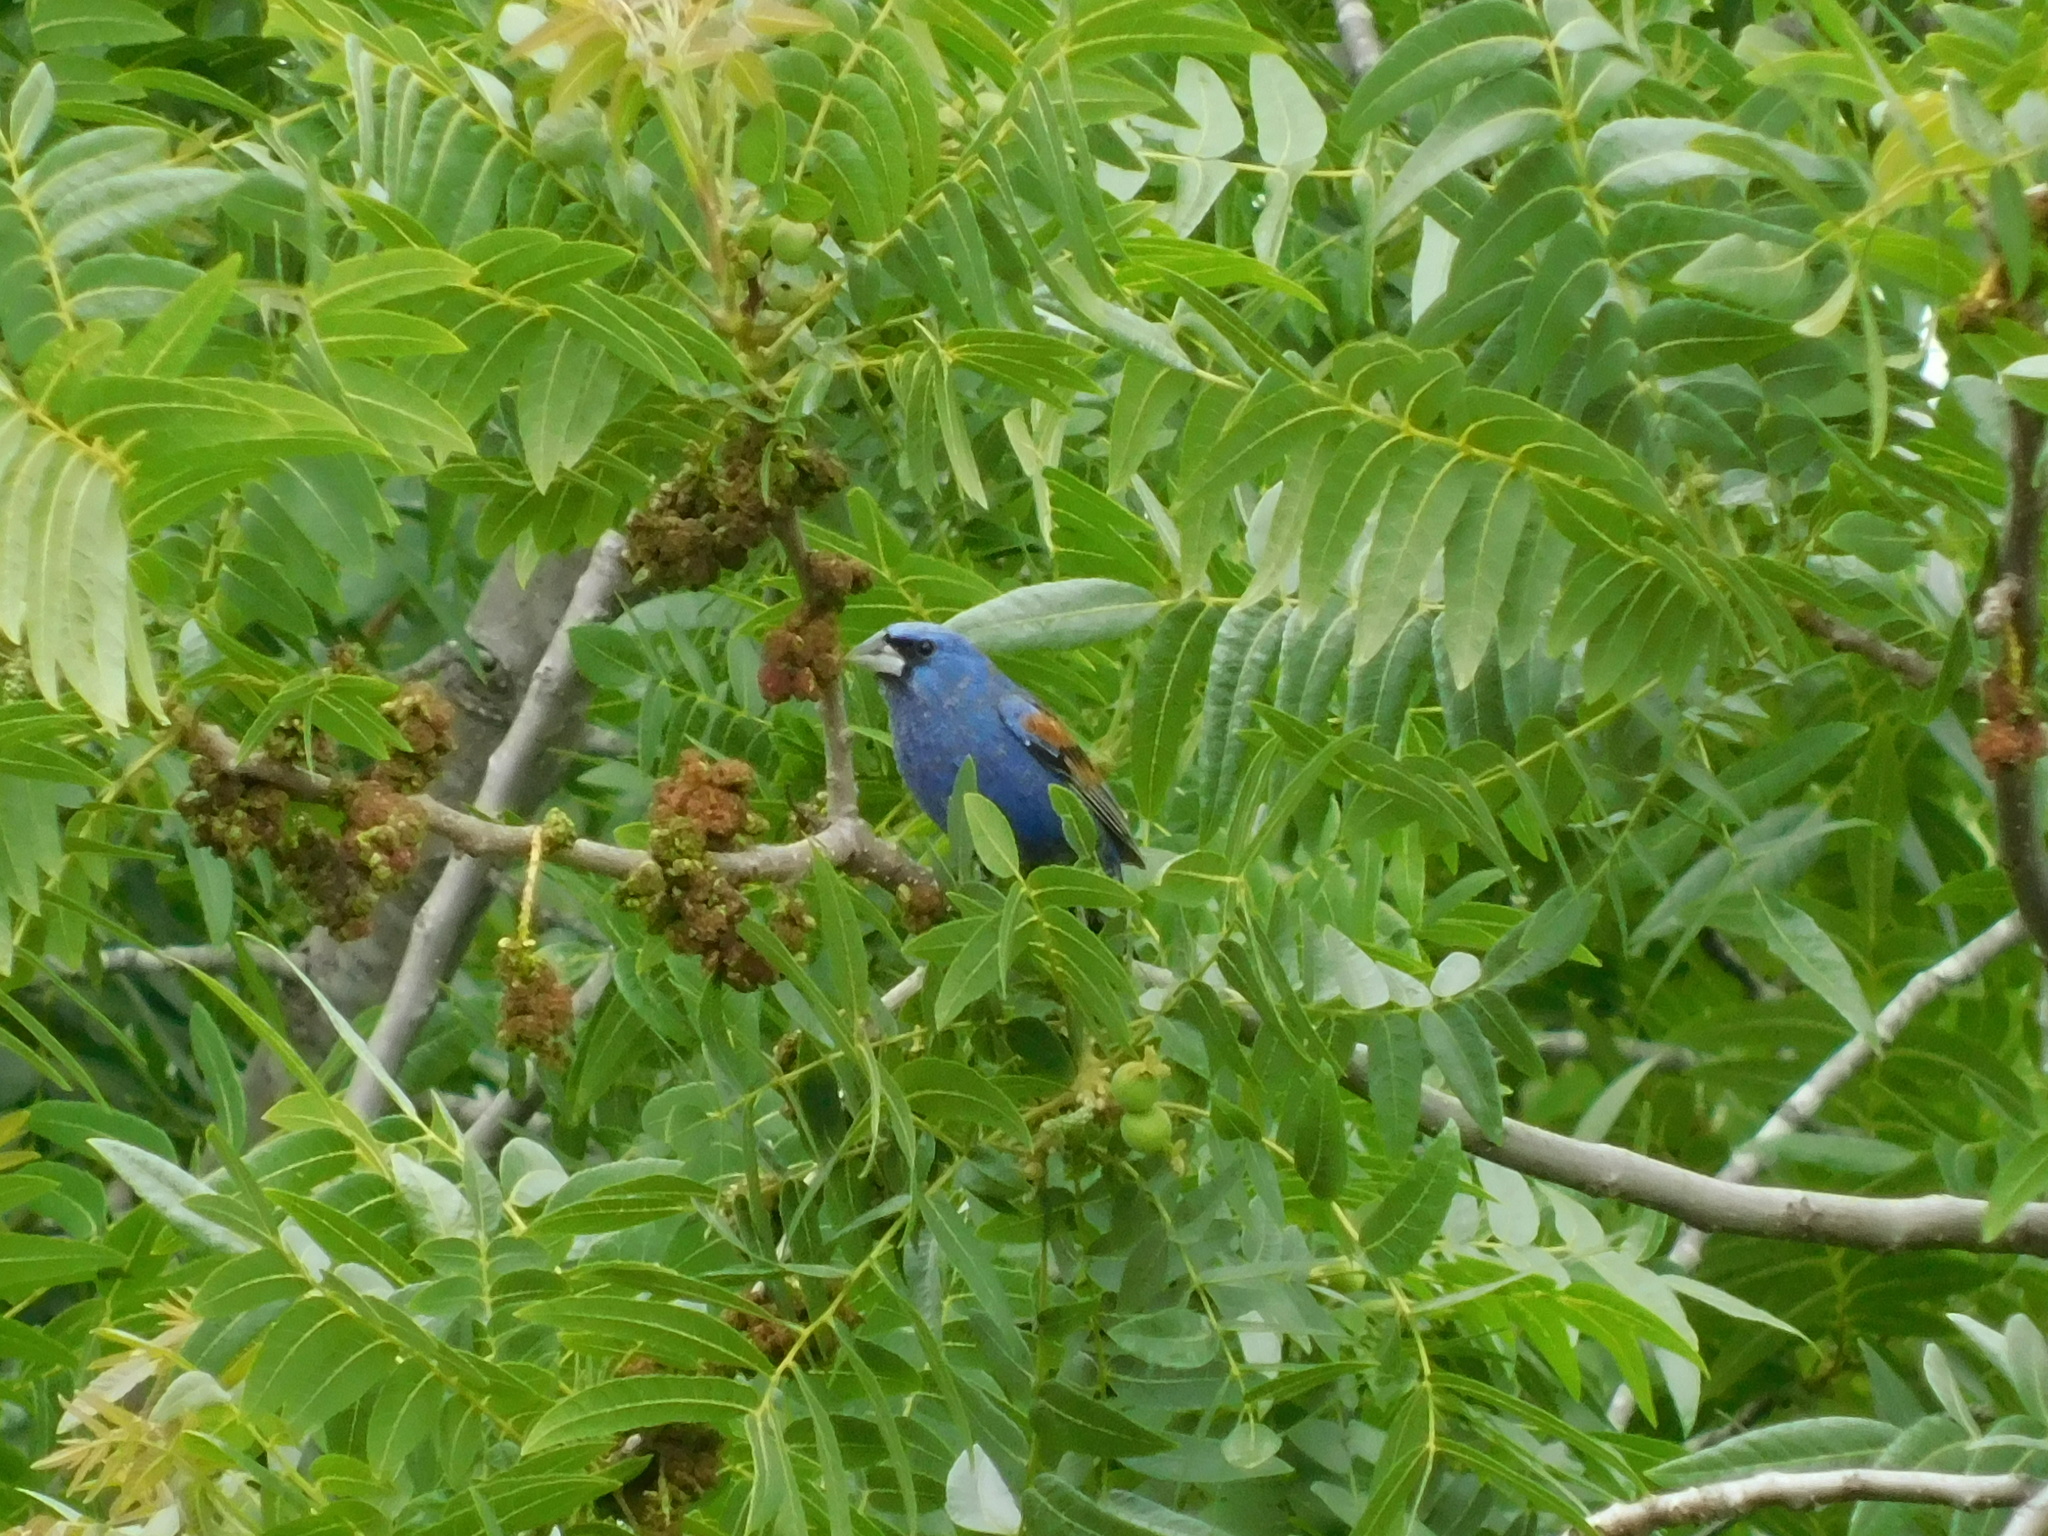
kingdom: Animalia
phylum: Chordata
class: Aves
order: Passeriformes
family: Cardinalidae
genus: Passerina
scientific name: Passerina caerulea
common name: Blue grosbeak
